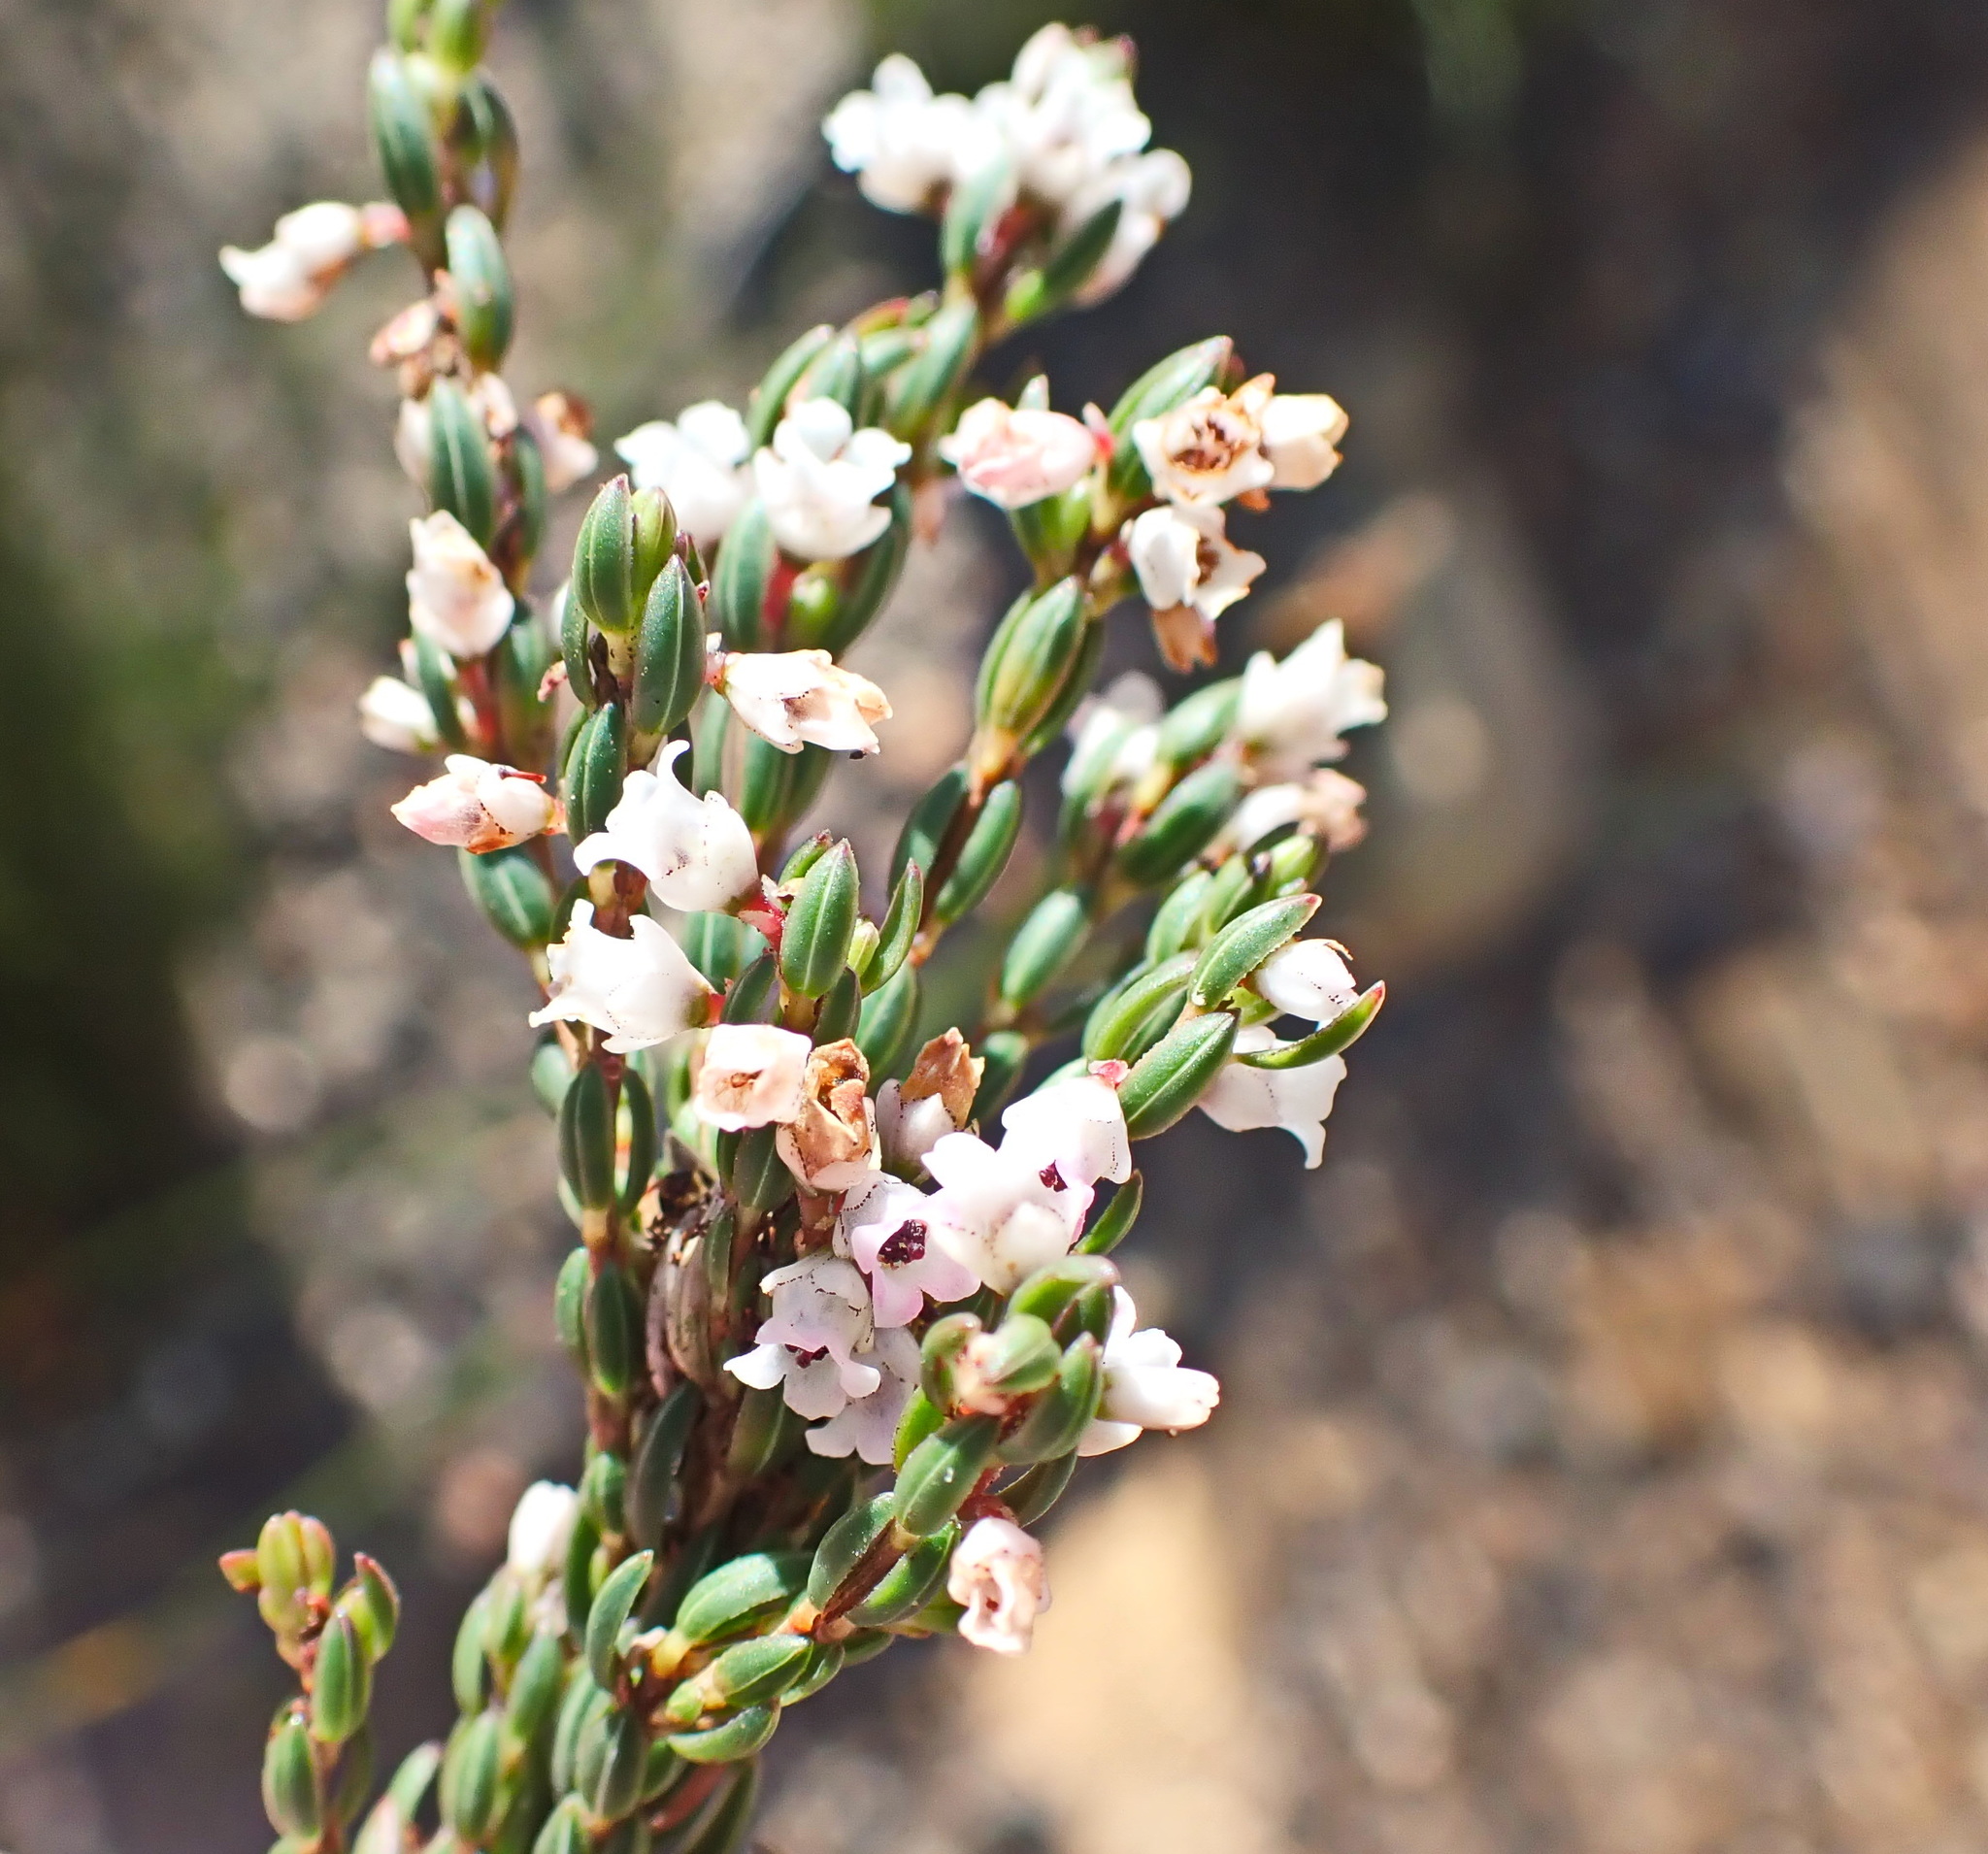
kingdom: Plantae
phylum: Tracheophyta
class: Magnoliopsida
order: Ericales
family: Ericaceae
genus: Erica
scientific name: Erica articularis
